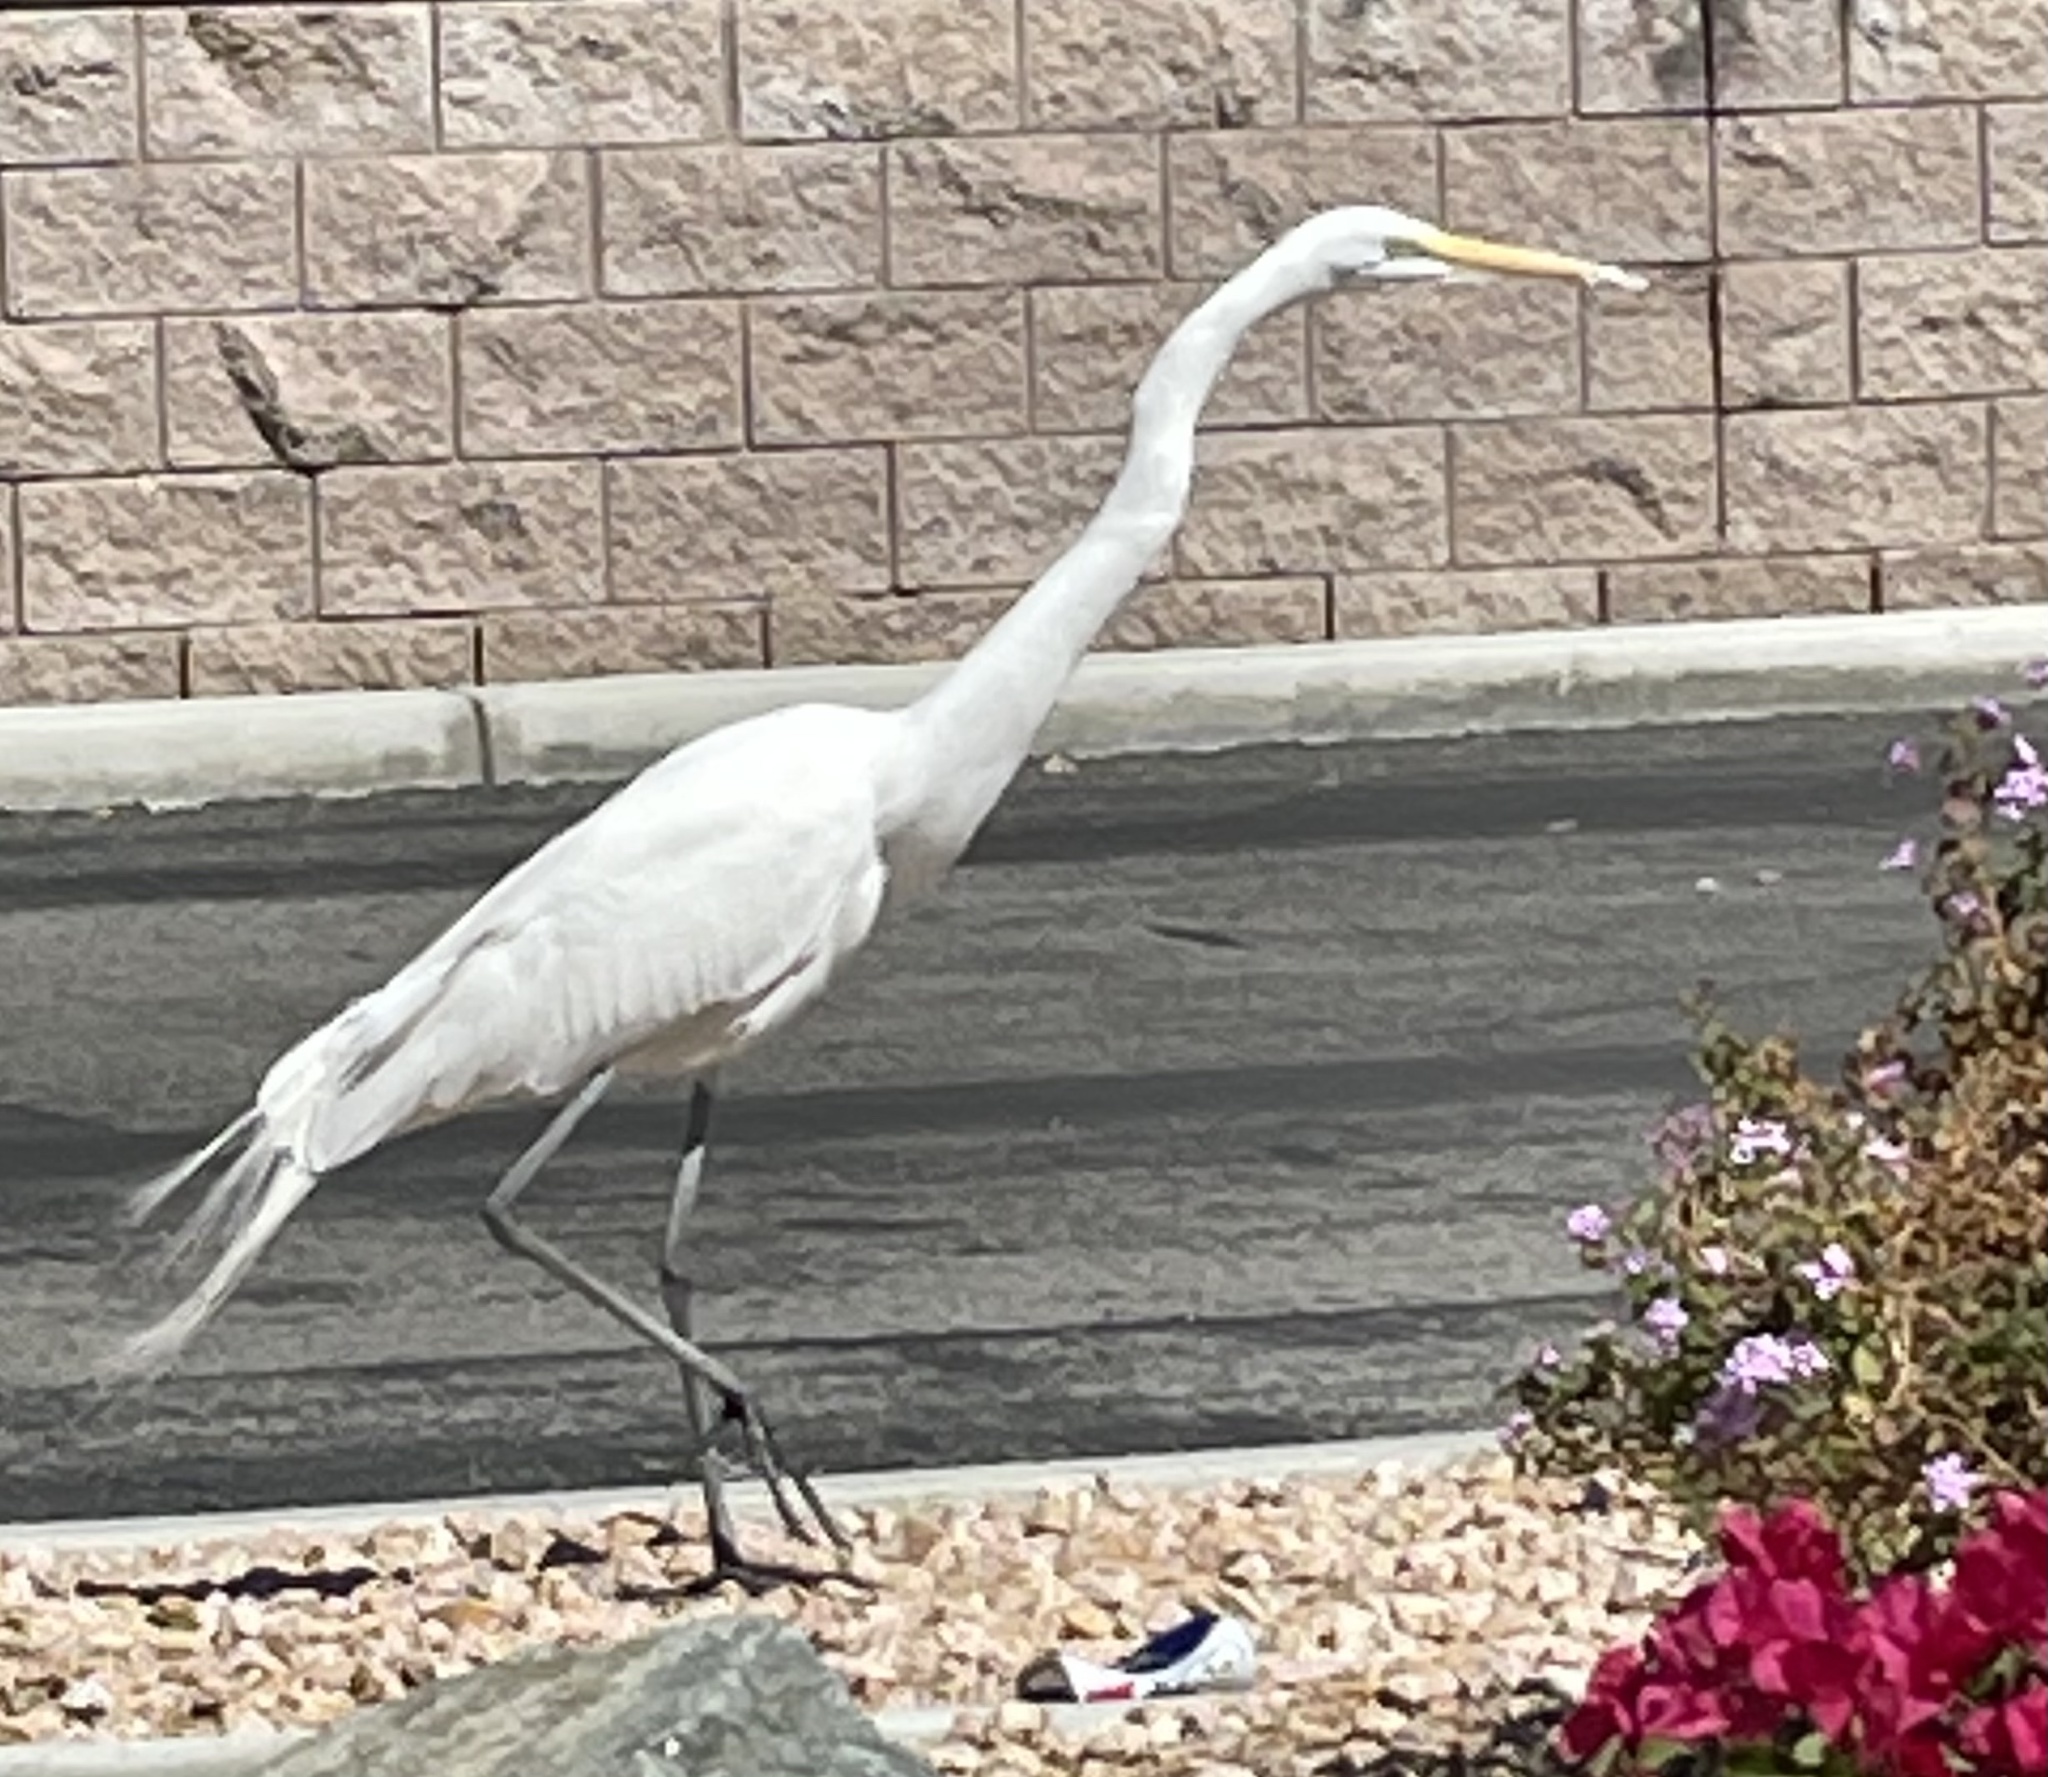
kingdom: Animalia
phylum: Chordata
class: Aves
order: Pelecaniformes
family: Ardeidae
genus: Ardea
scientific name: Ardea alba
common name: Great egret
